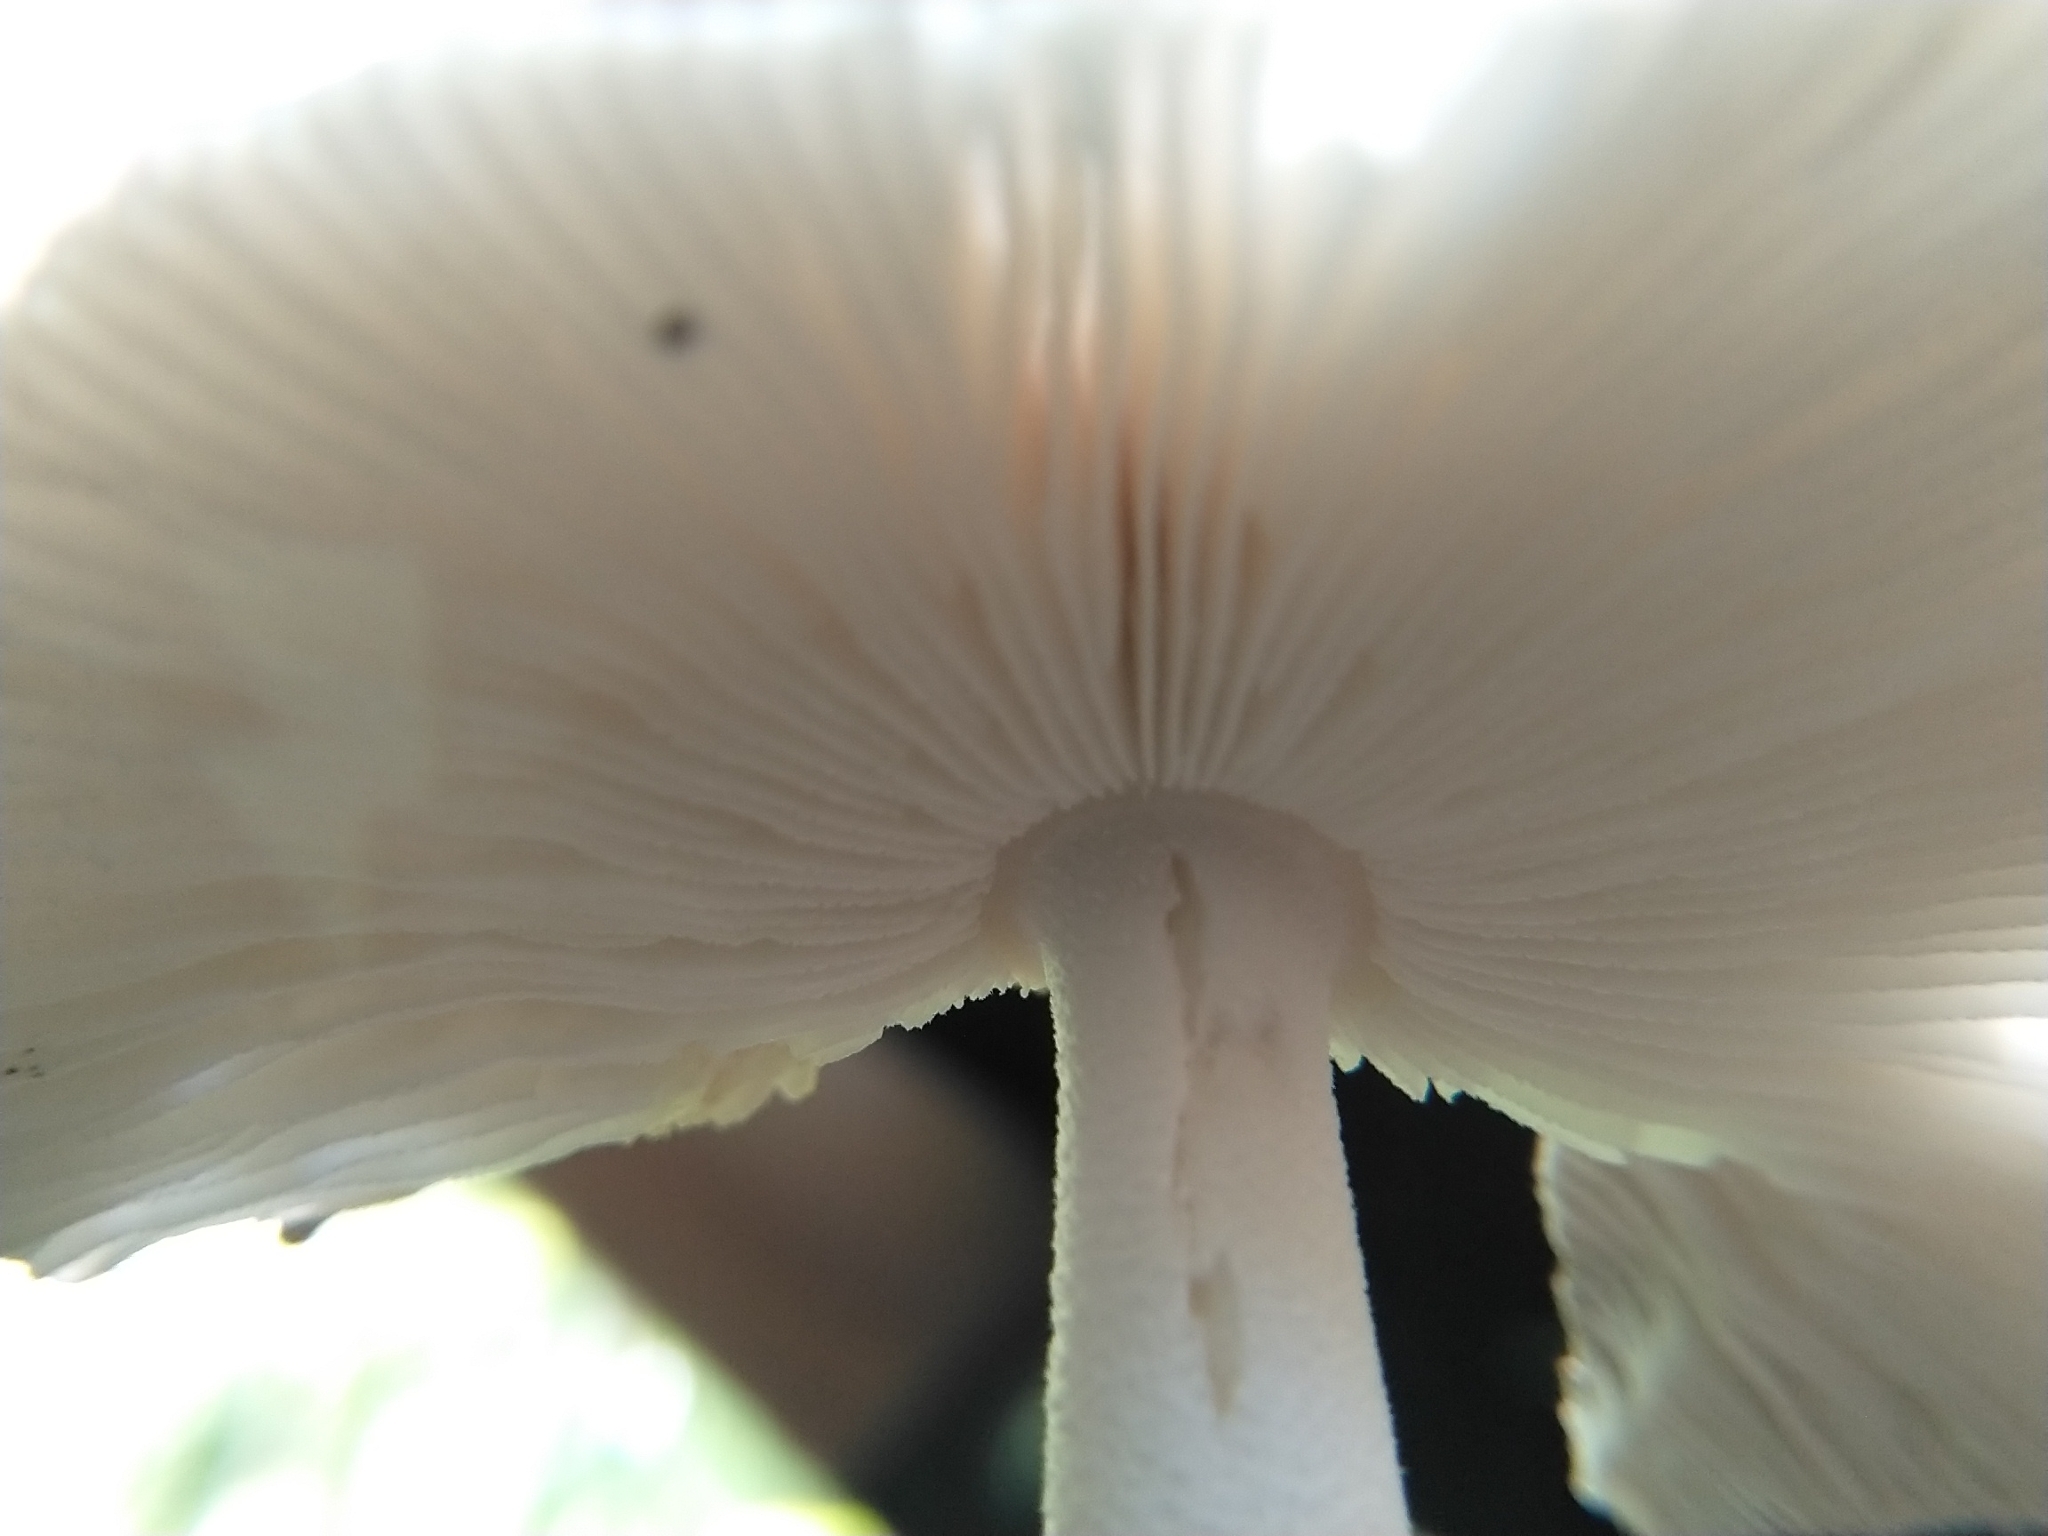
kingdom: Fungi
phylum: Basidiomycota
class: Agaricomycetes
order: Agaricales
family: Amanitaceae
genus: Amanita
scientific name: Amanita vaginata
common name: Grisette
